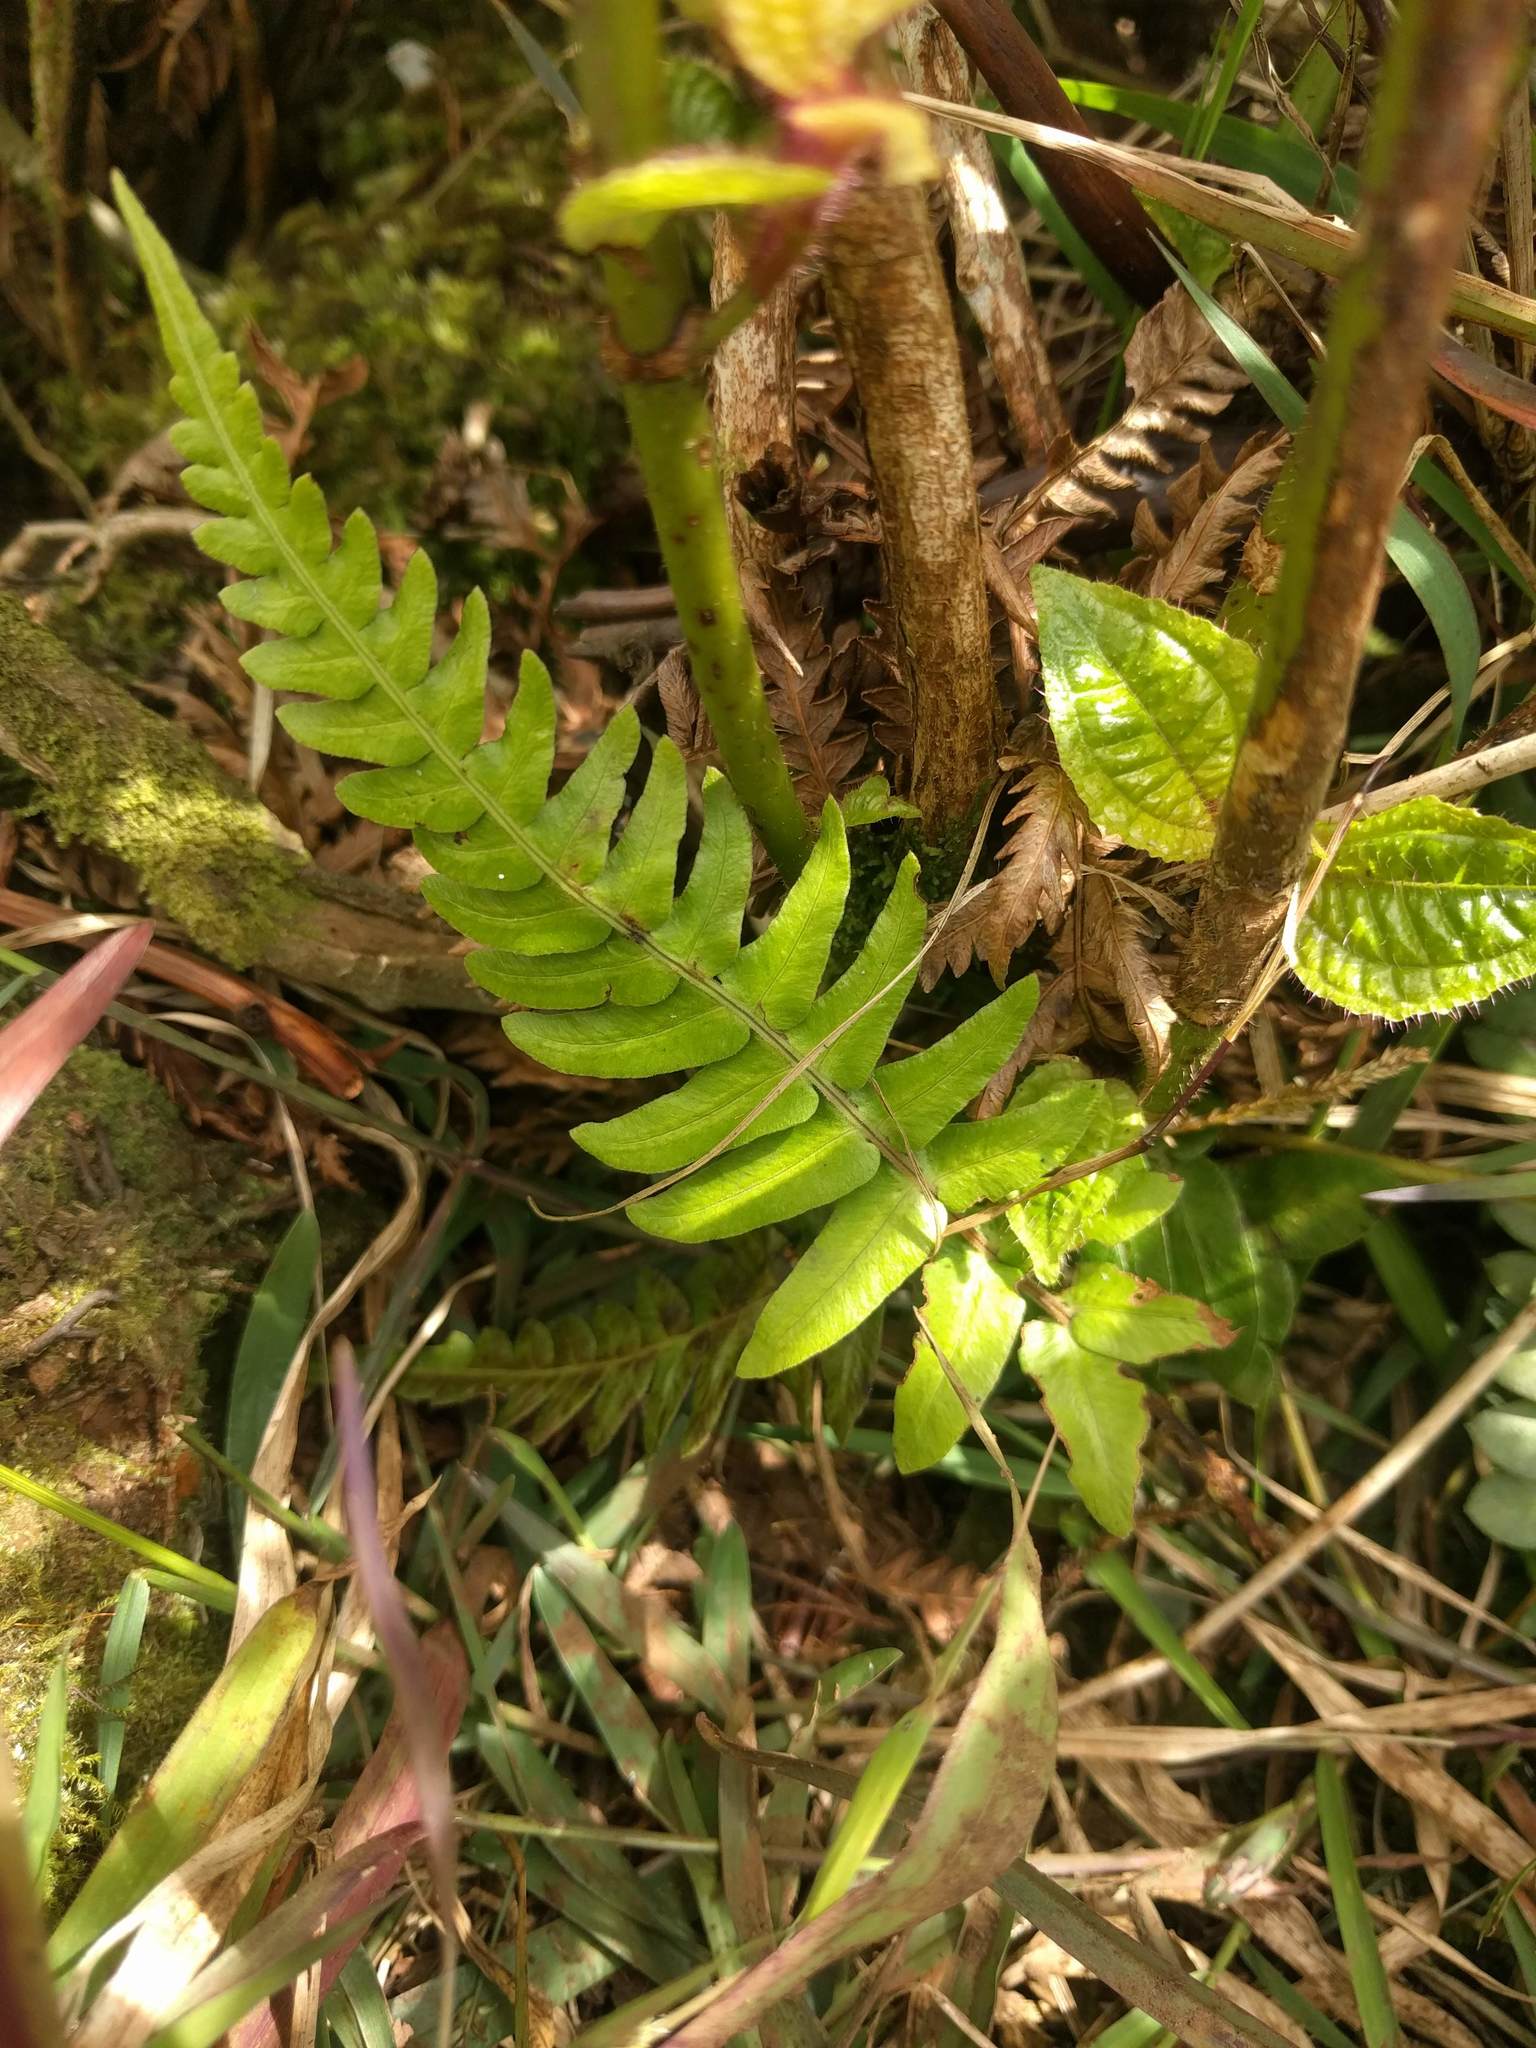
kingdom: Plantae
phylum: Tracheophyta
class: Polypodiopsida
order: Polypodiales
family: Blechnaceae
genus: Blechnum
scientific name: Blechnum appendiculatum
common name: Palm fern
